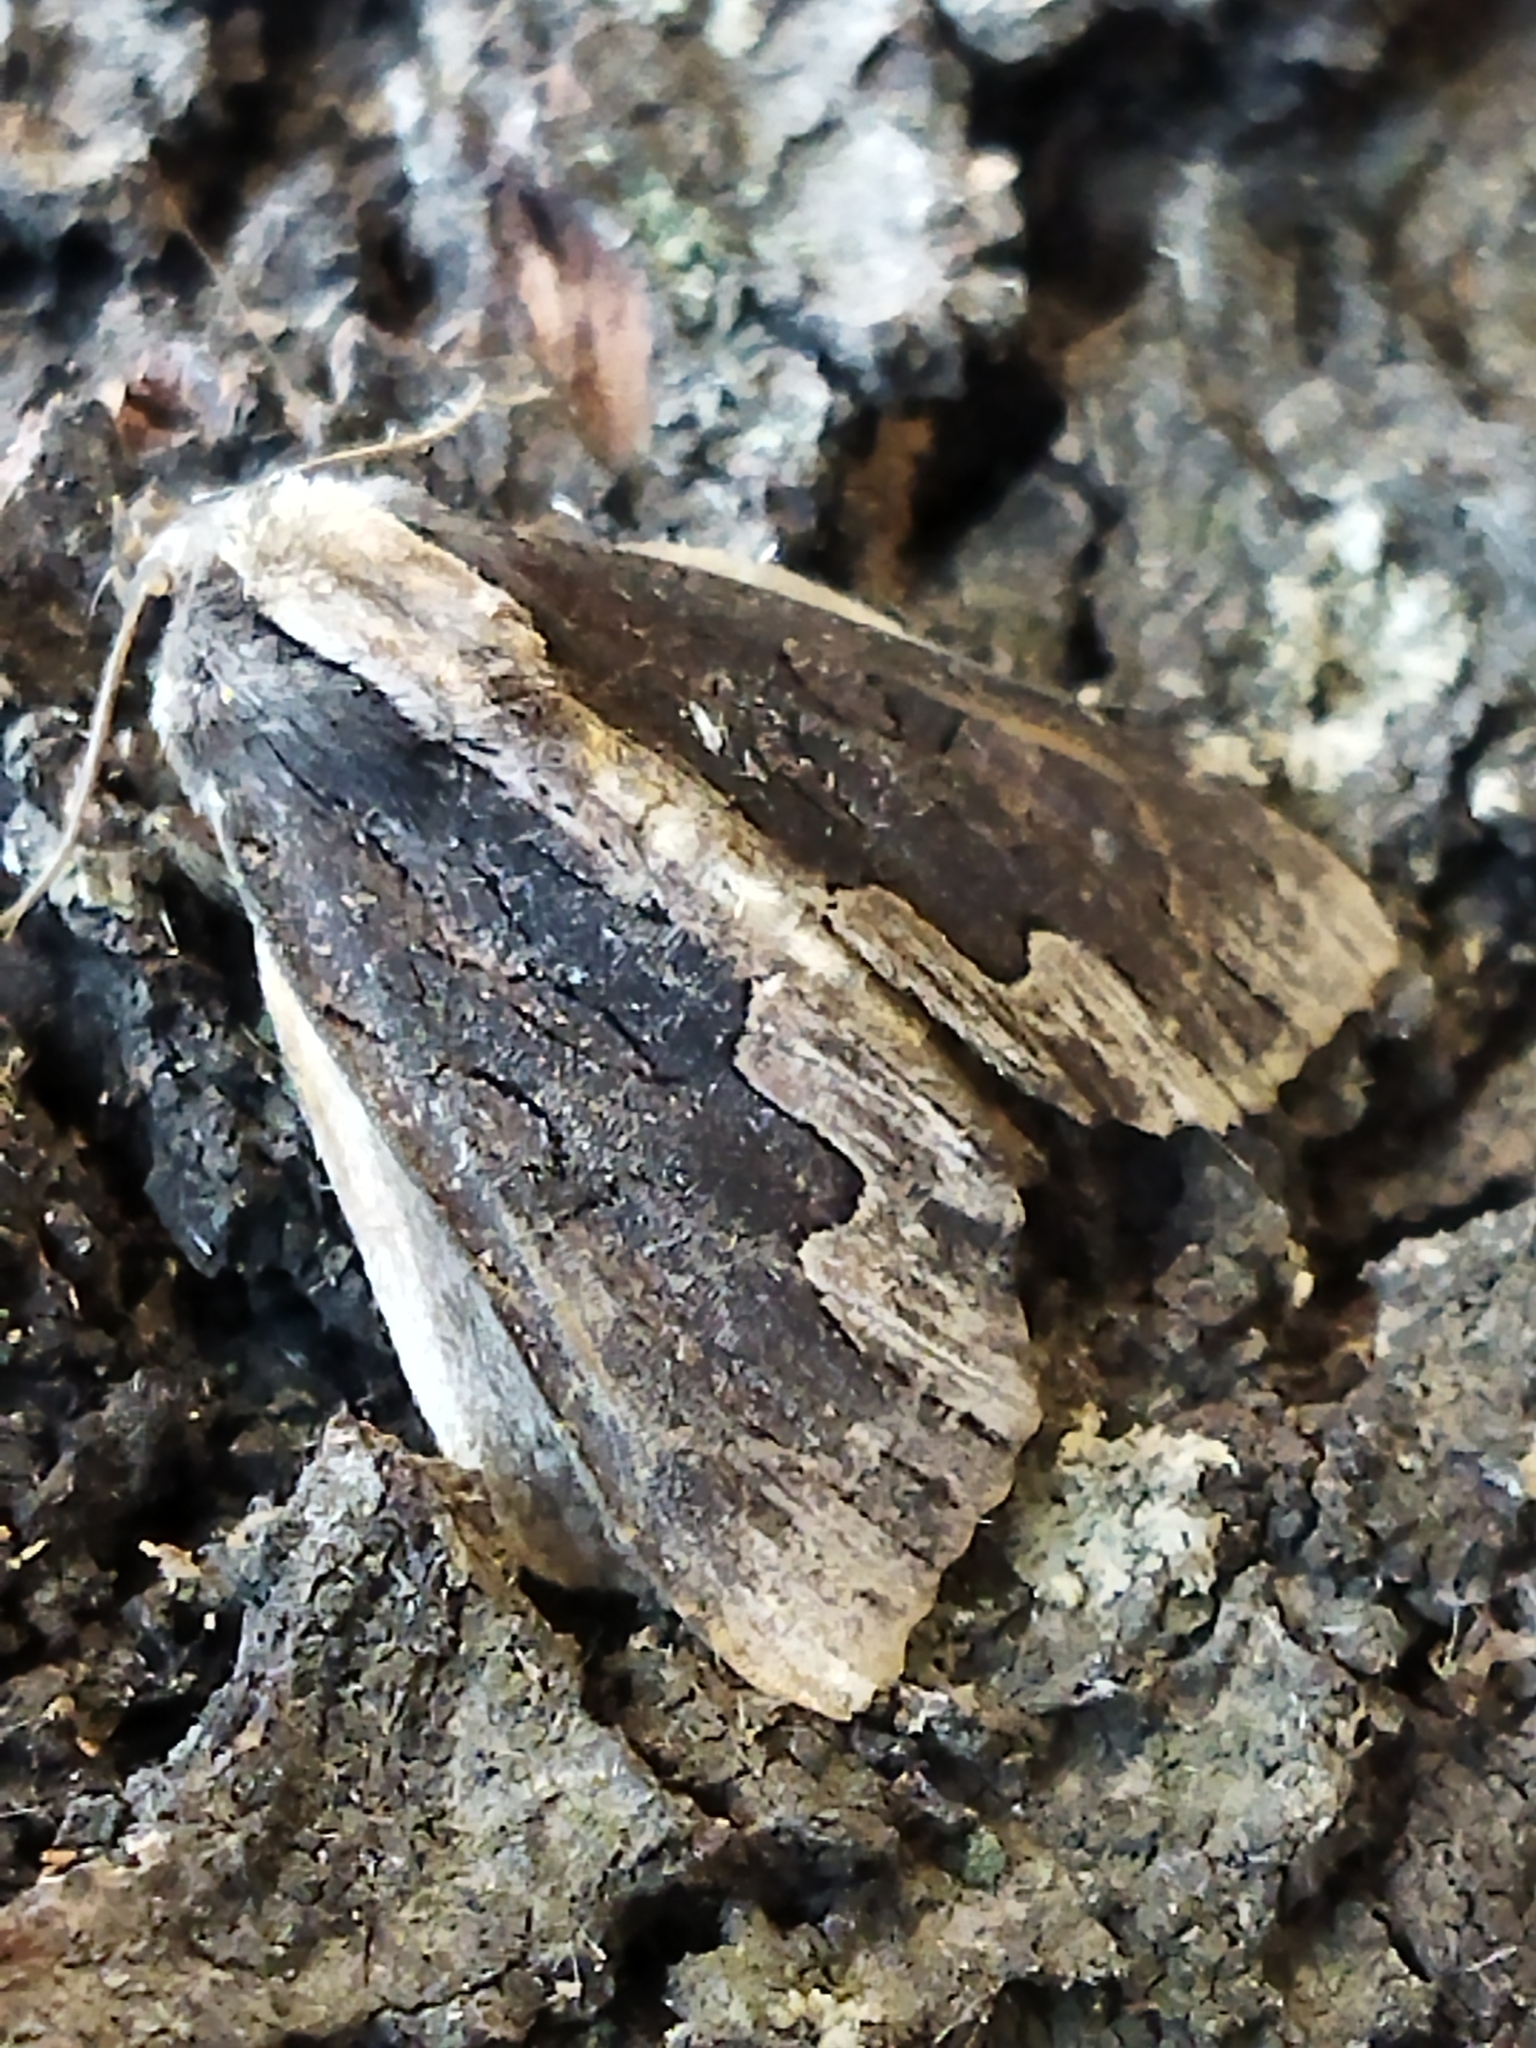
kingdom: Animalia
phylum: Arthropoda
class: Insecta
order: Lepidoptera
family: Noctuidae
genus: Dypterygia
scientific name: Dypterygia scabriuscula
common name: Bird's wing
